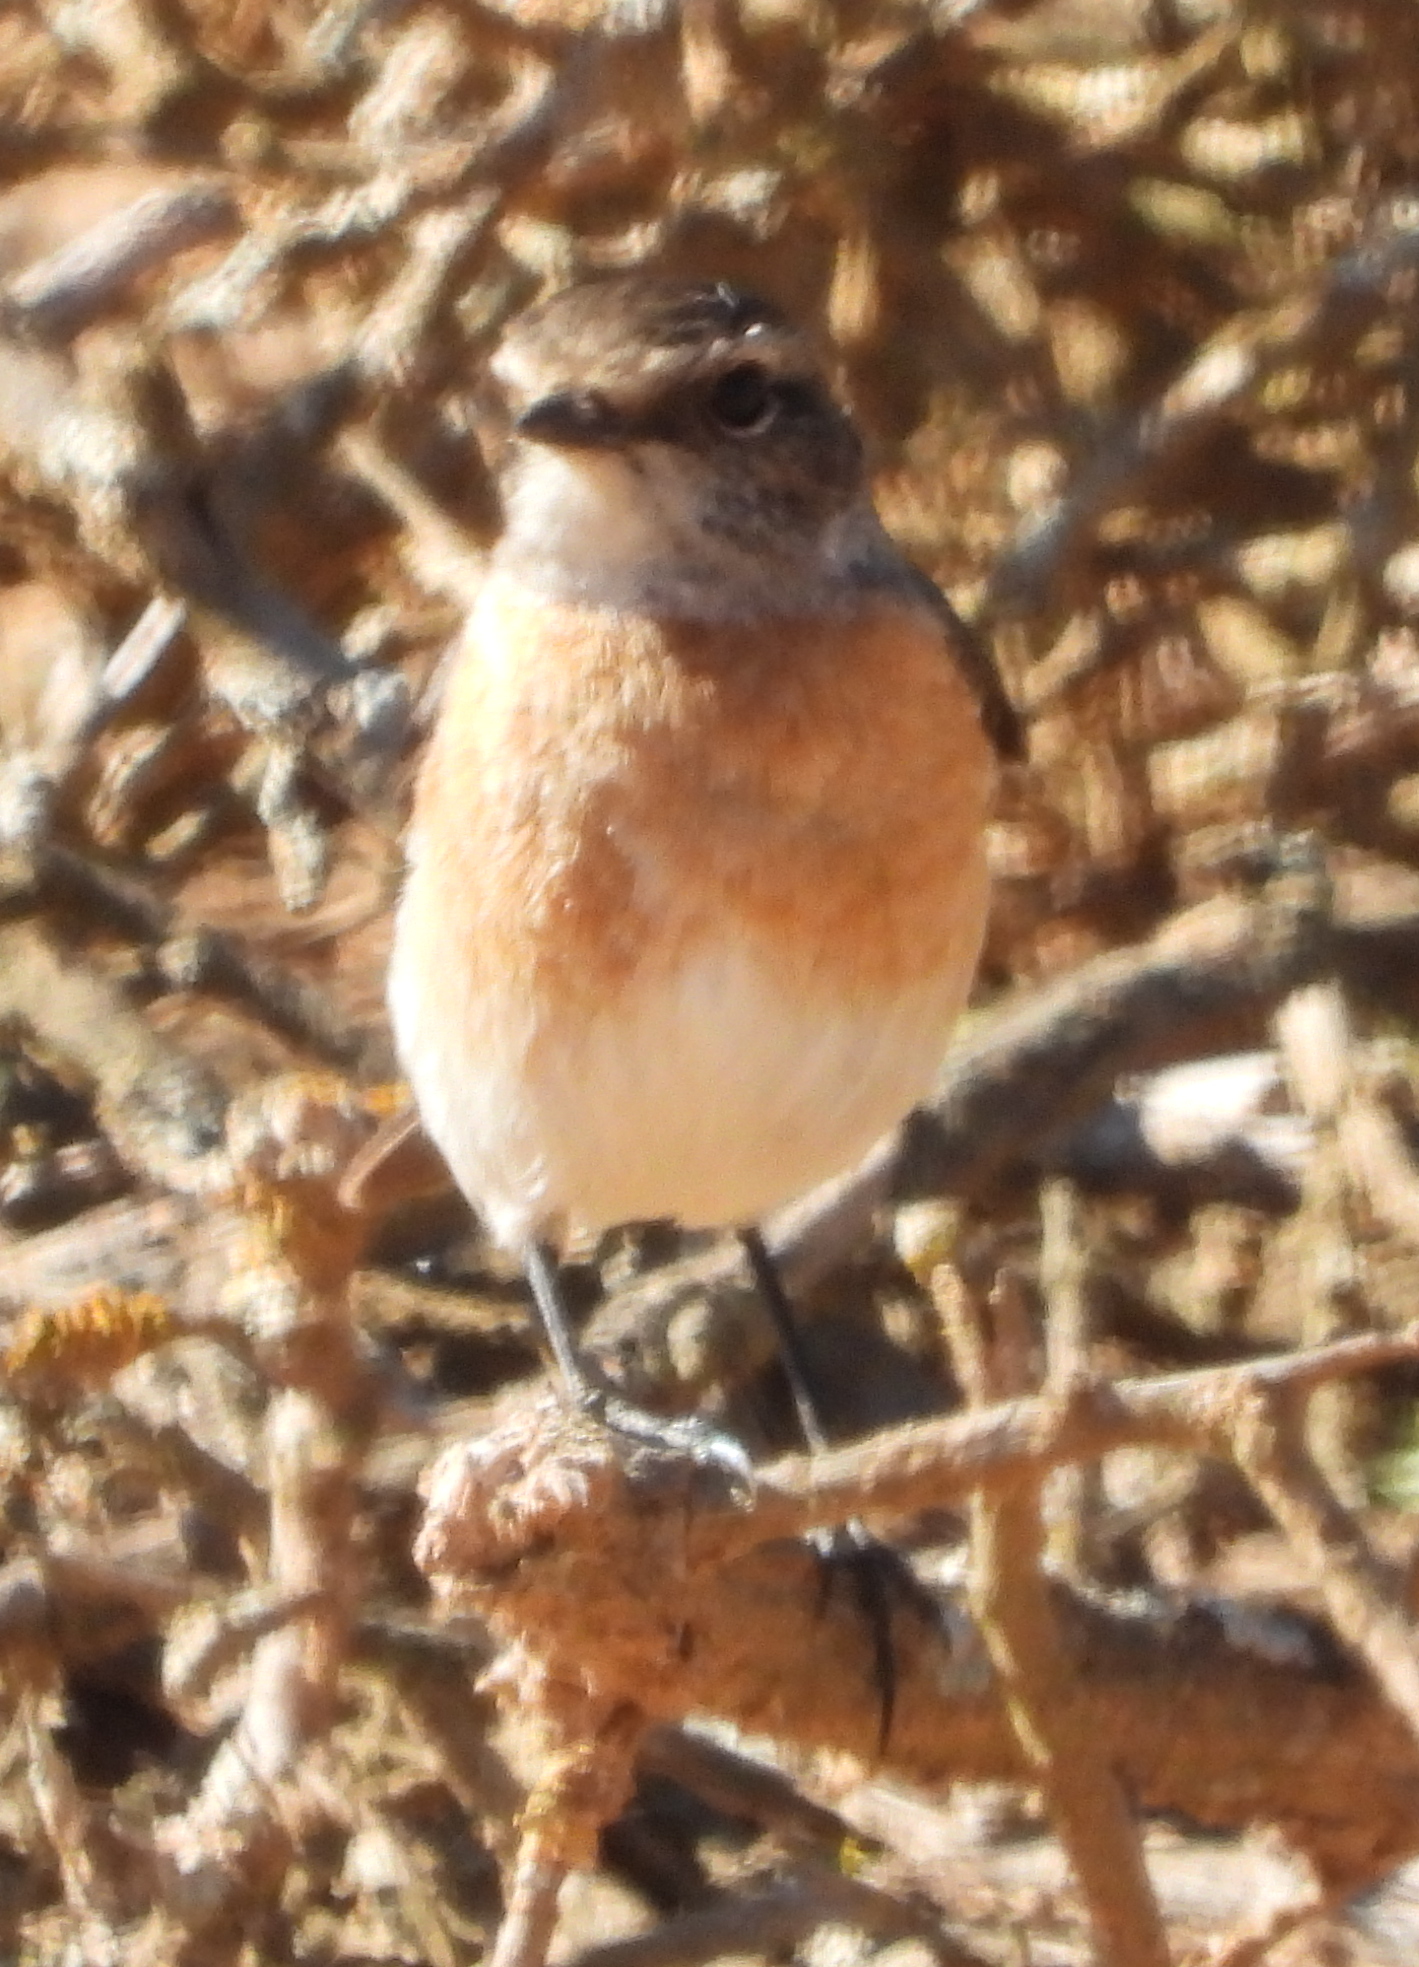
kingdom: Animalia
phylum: Chordata
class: Aves
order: Passeriformes
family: Muscicapidae
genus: Saxicola
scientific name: Saxicola torquatus
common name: African stonechat
